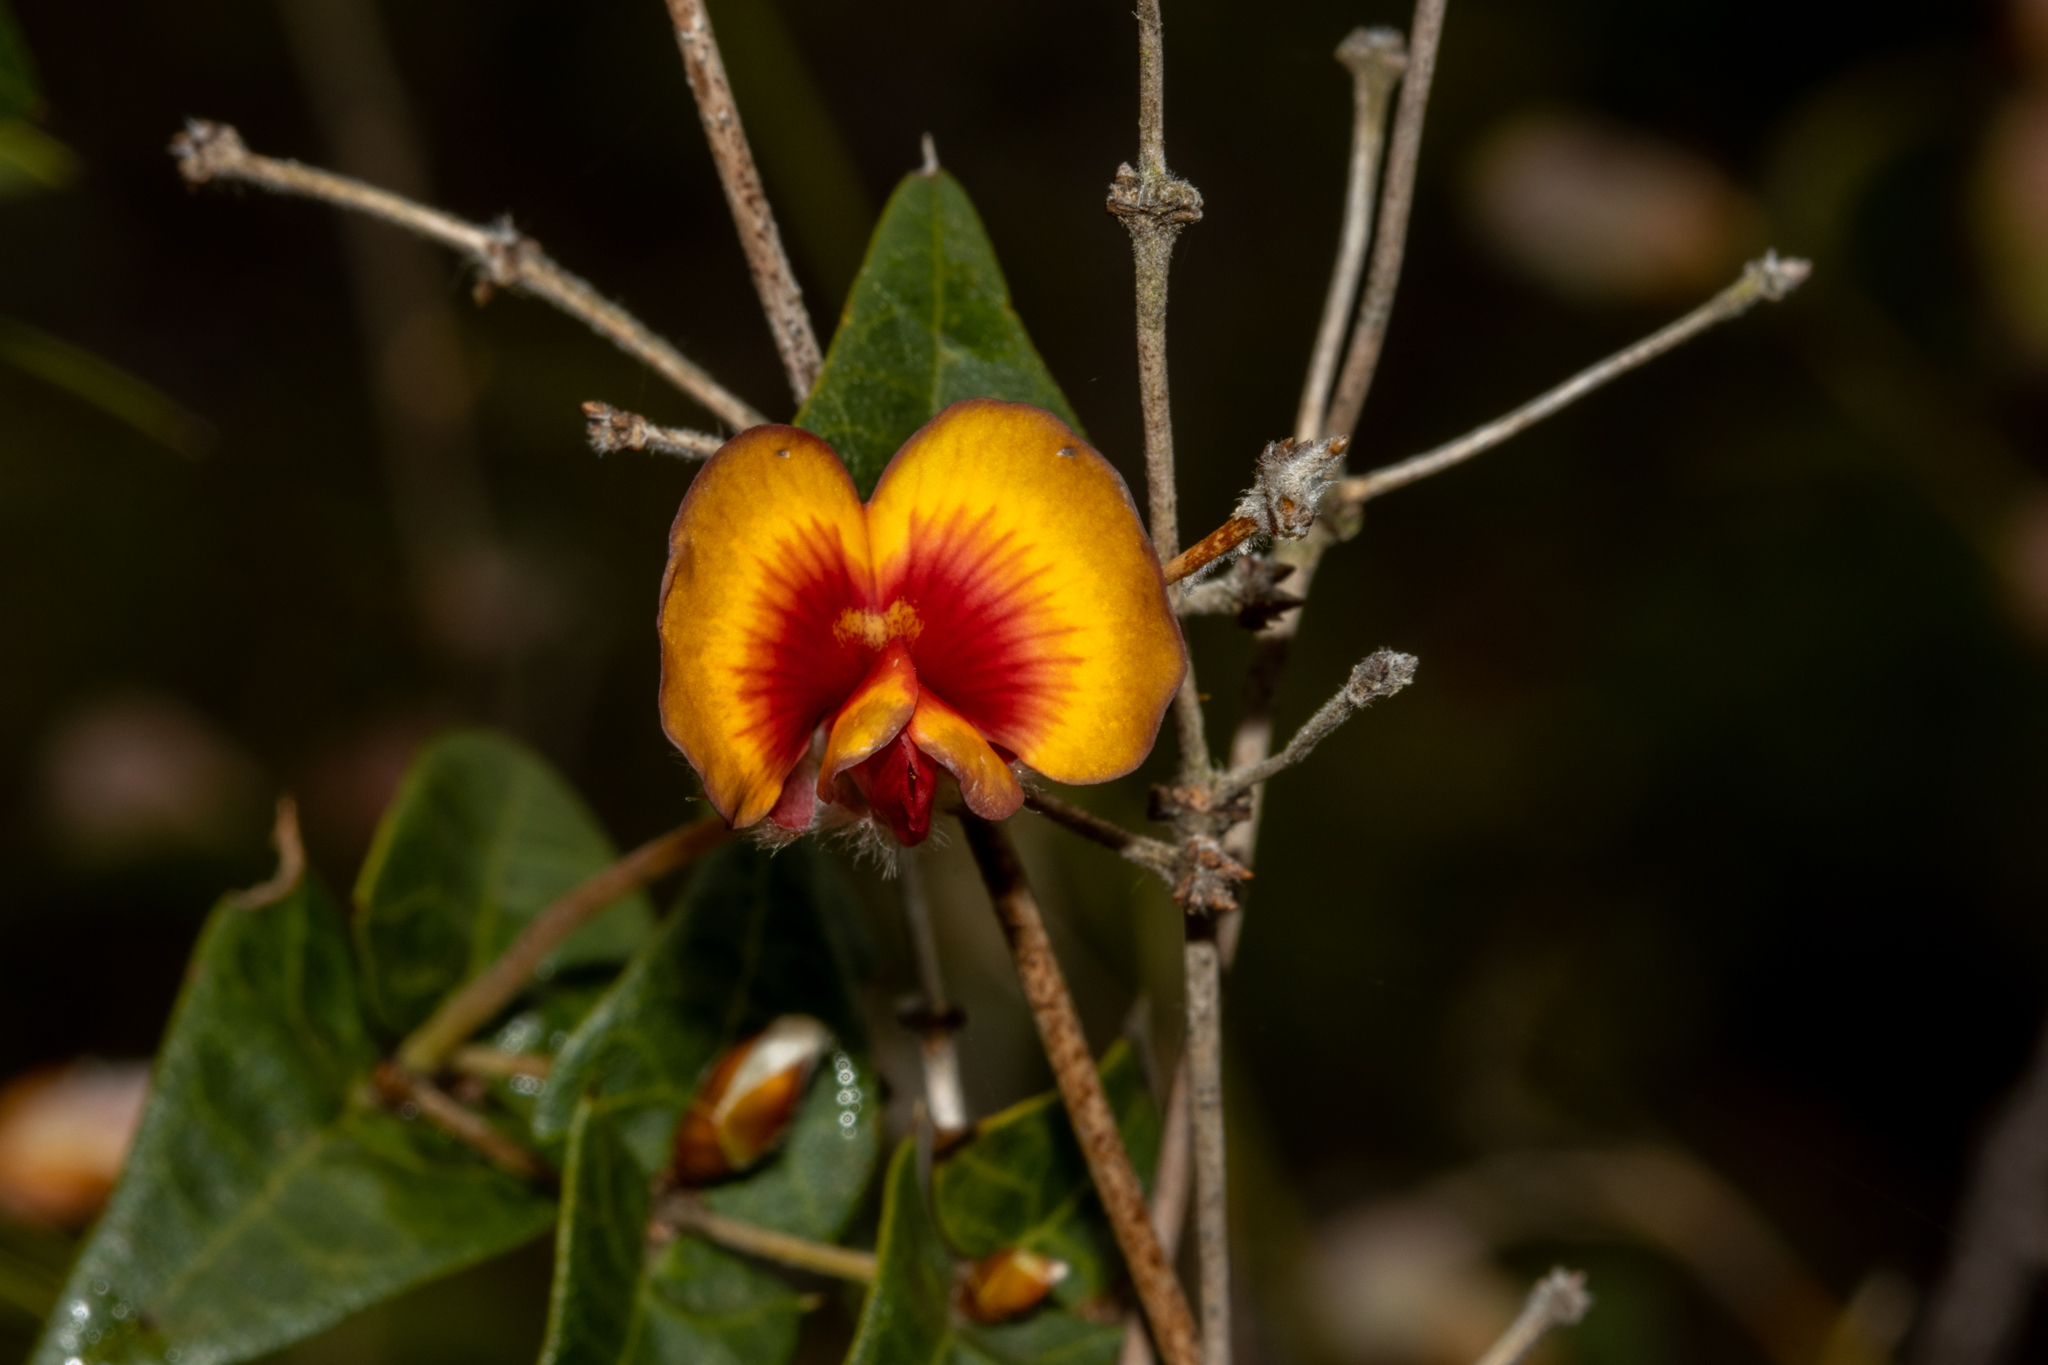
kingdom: Plantae
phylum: Tracheophyta
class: Magnoliopsida
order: Fabales
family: Fabaceae
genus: Platylobium
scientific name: Platylobium obtusangulum
